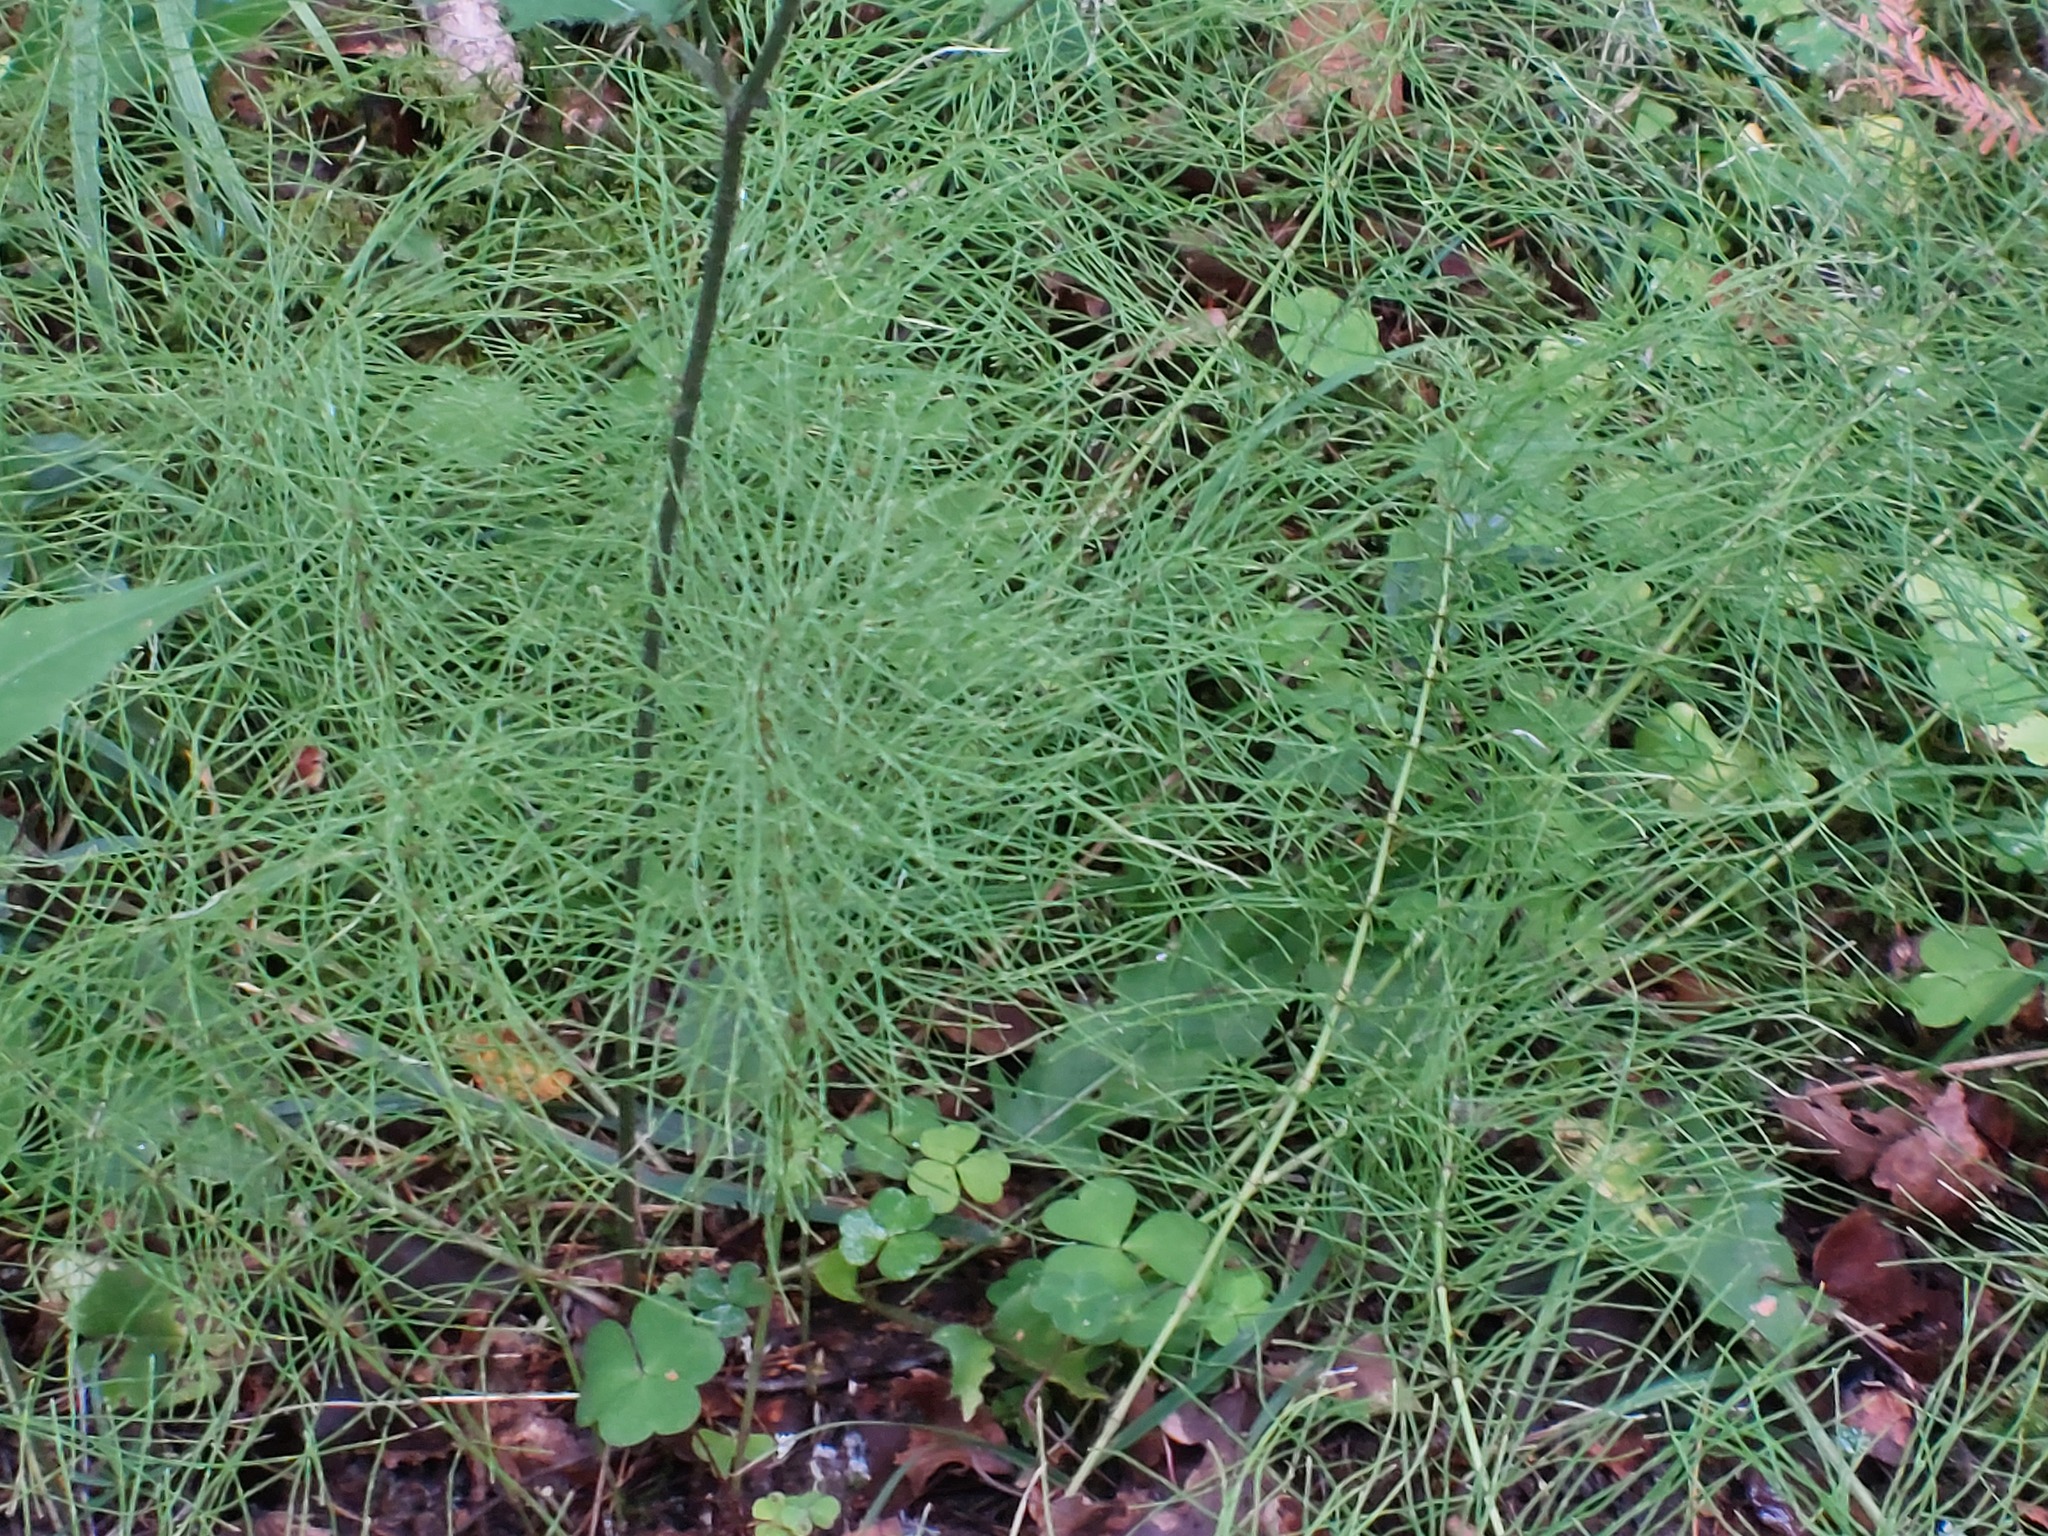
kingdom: Plantae
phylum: Tracheophyta
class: Polypodiopsida
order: Equisetales
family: Equisetaceae
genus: Equisetum
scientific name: Equisetum pratense
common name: Meadow horsetail
